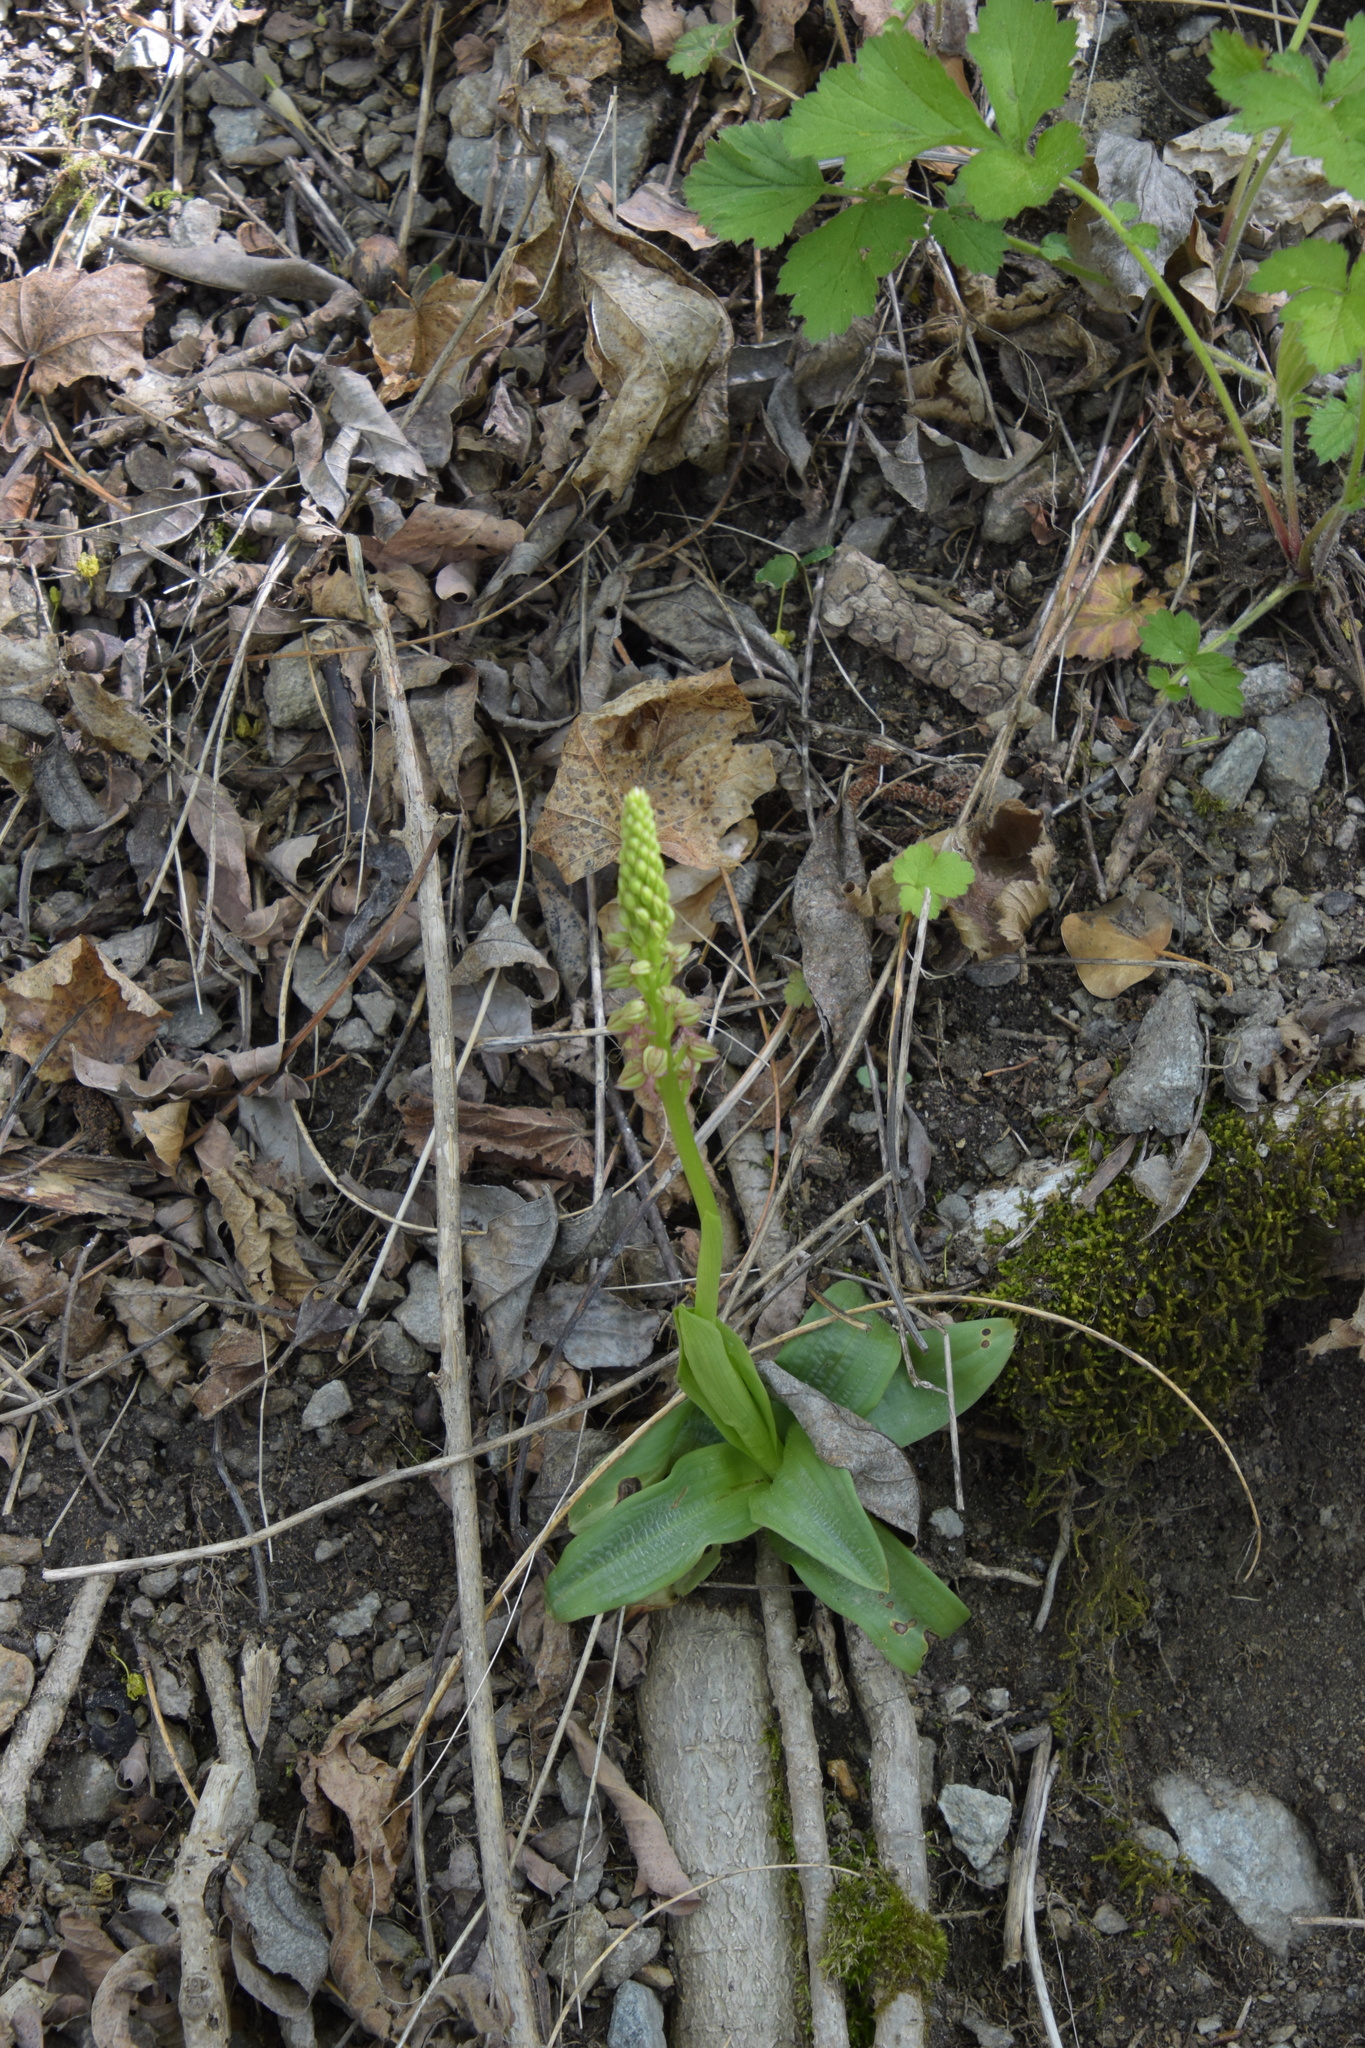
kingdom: Plantae
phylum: Tracheophyta
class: Liliopsida
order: Asparagales
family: Orchidaceae
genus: Orchis
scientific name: Orchis anthropophora
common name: Man orchid
